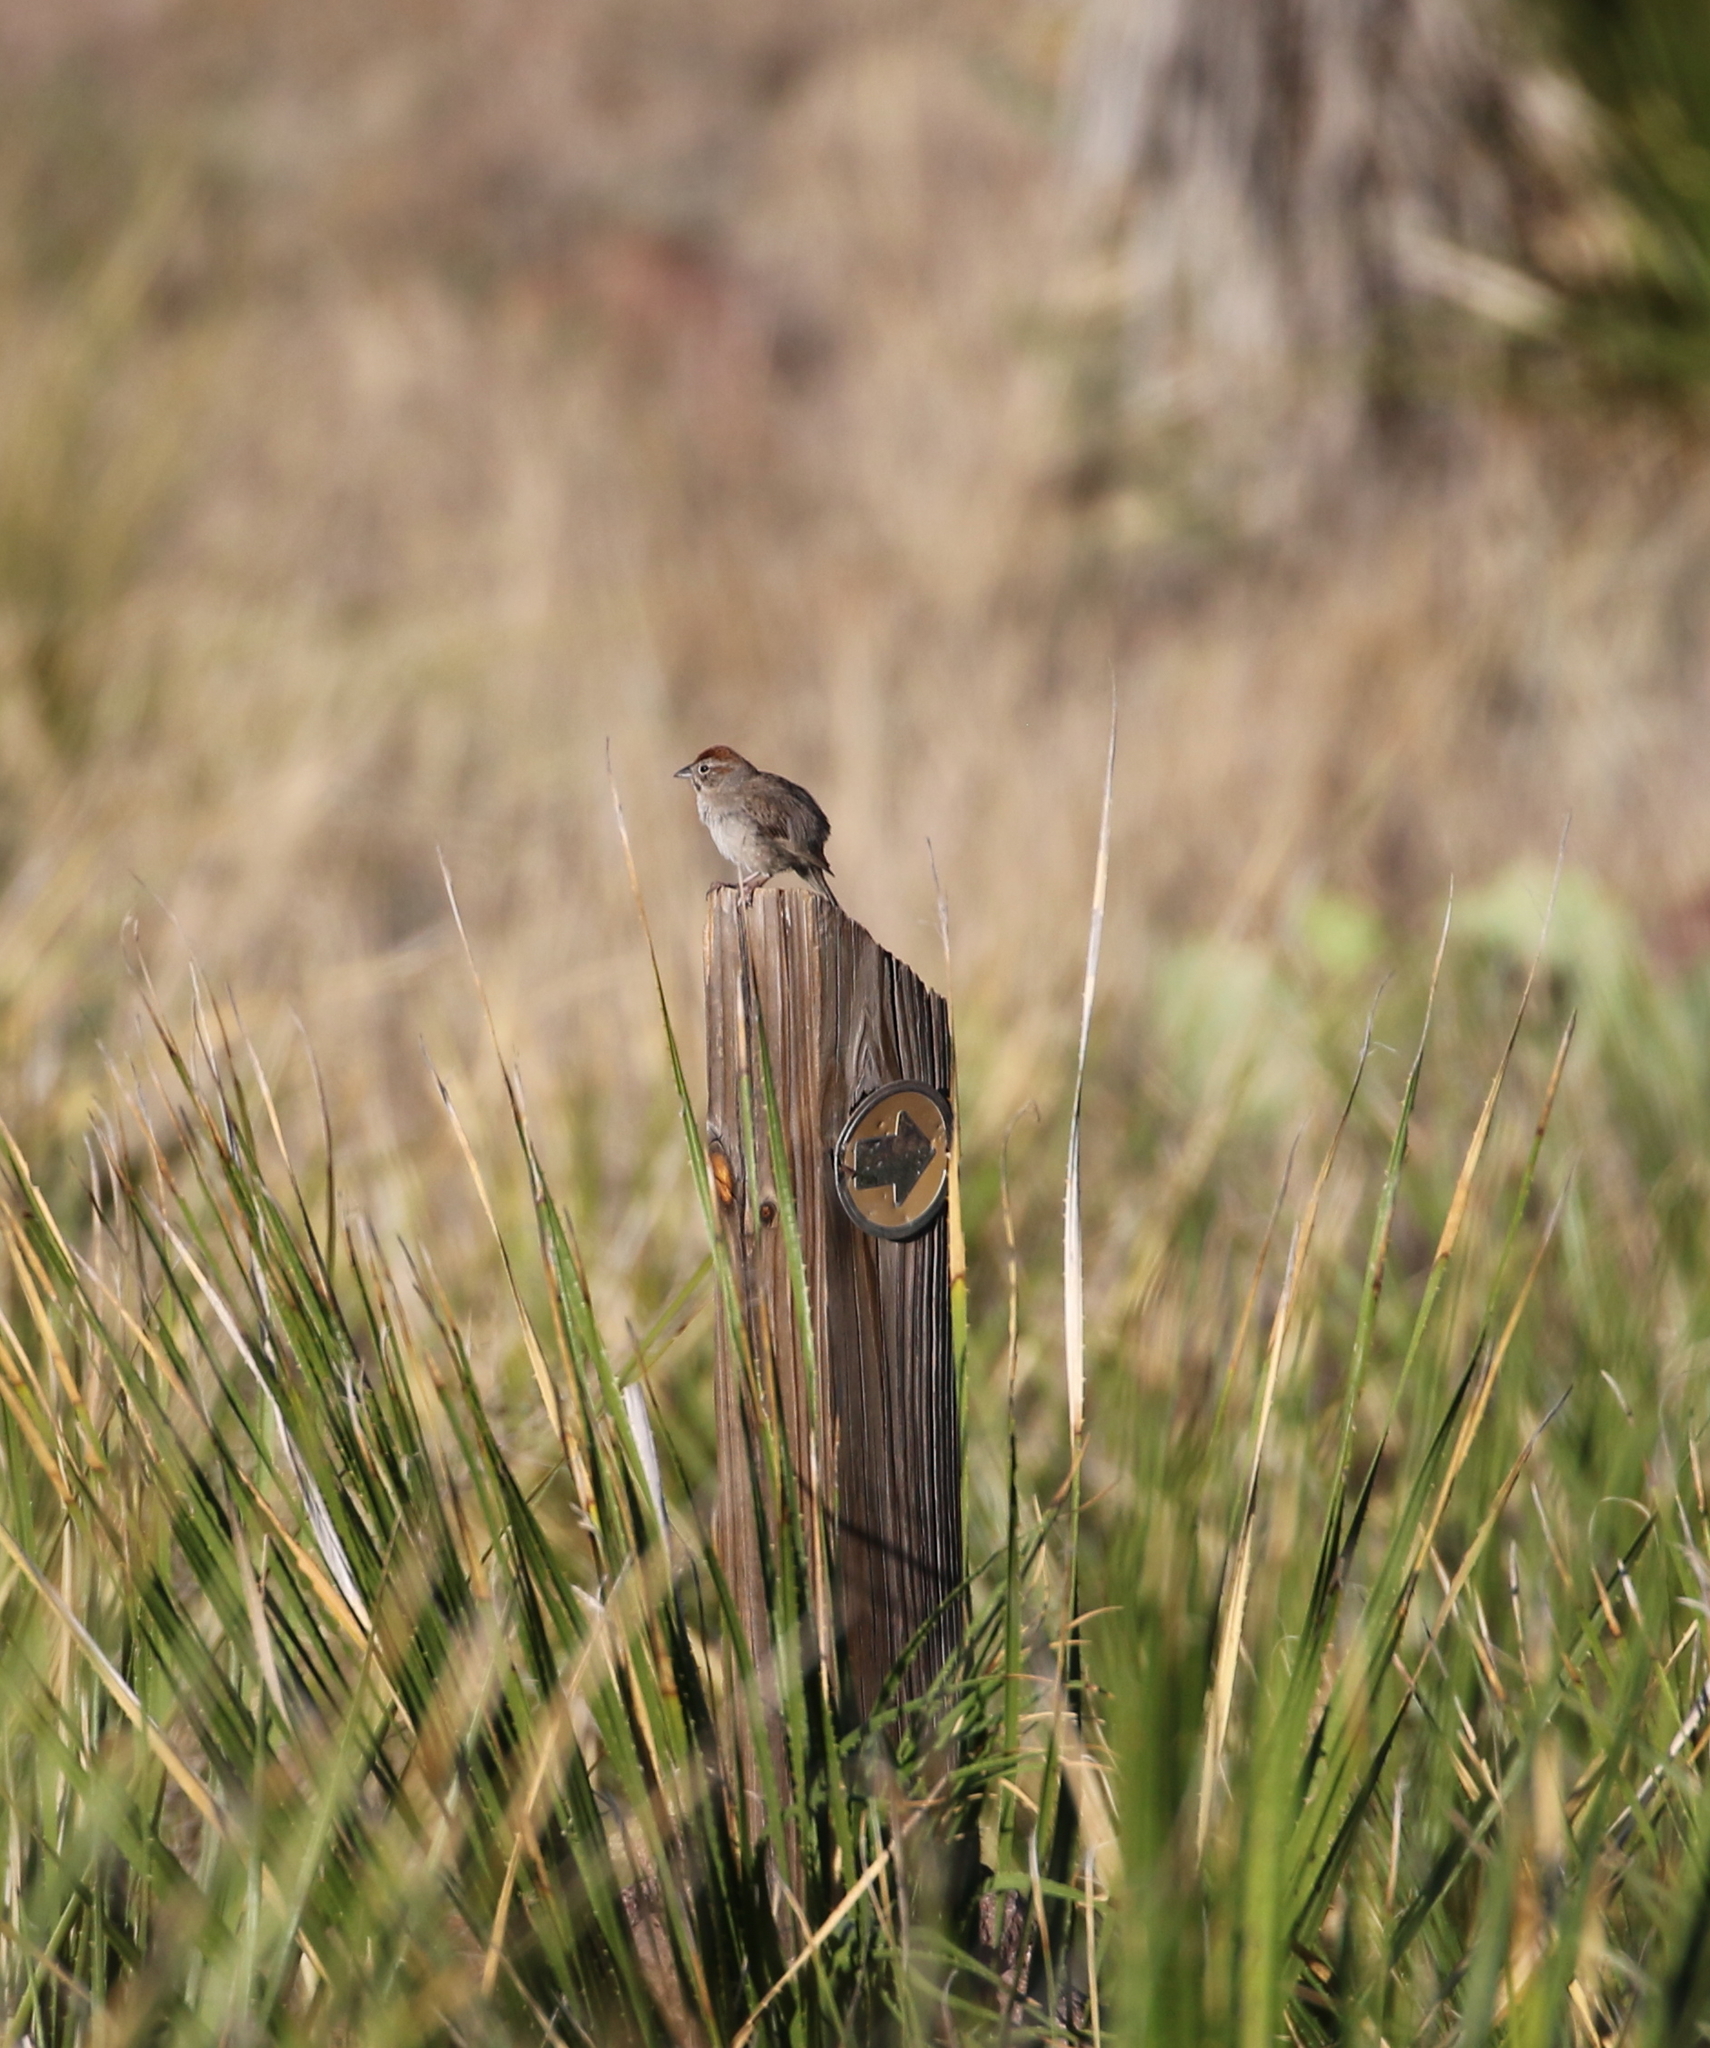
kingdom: Animalia
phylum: Chordata
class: Aves
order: Passeriformes
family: Passerellidae
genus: Aimophila
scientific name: Aimophila ruficeps
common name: Rufous-crowned sparrow
